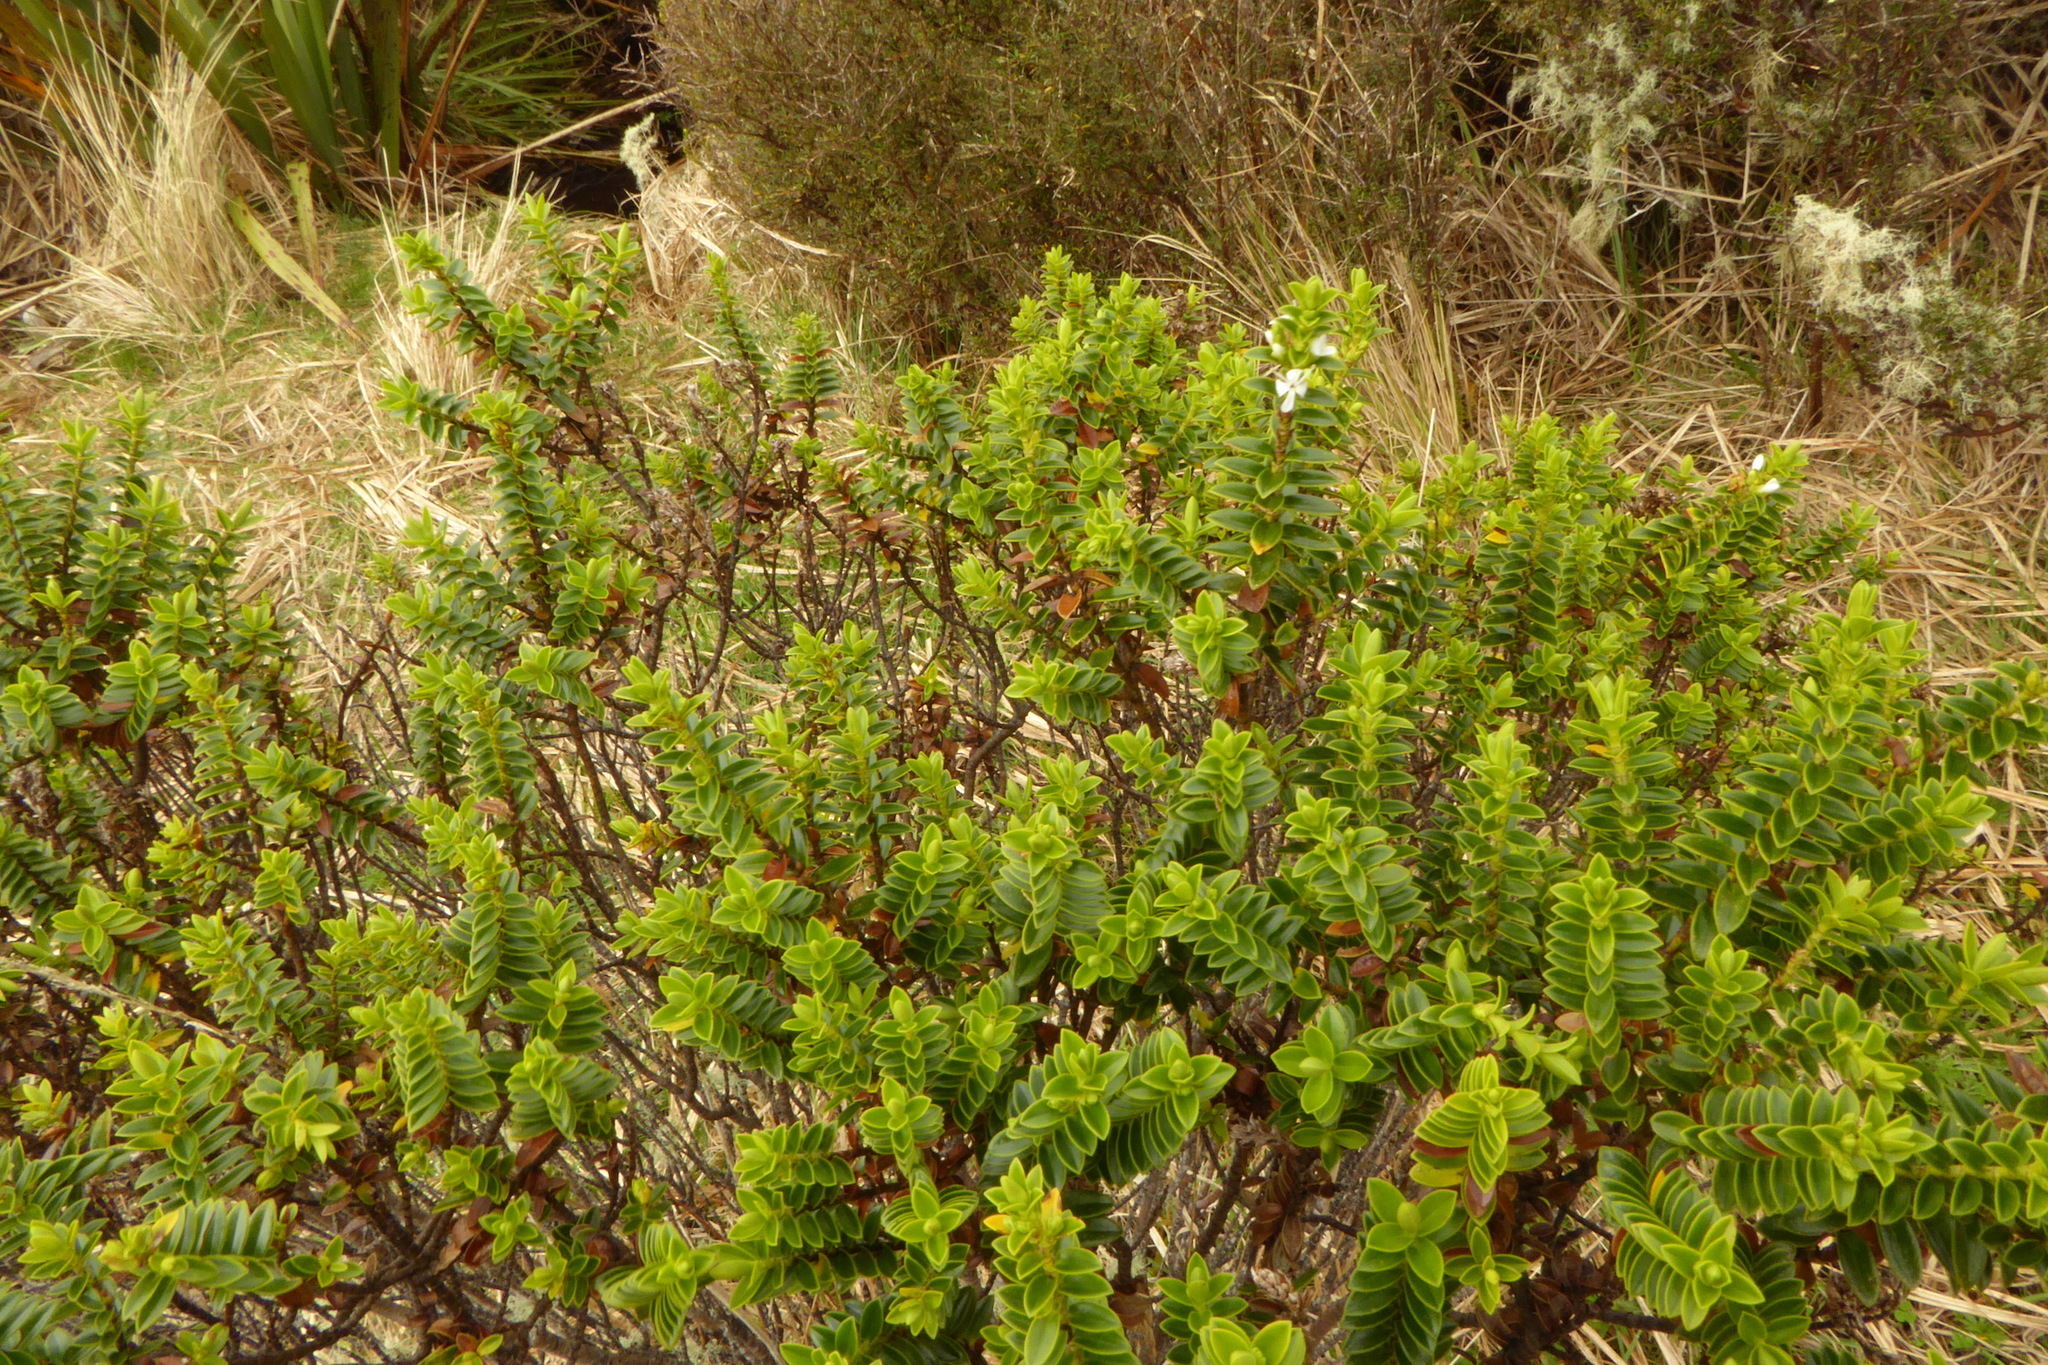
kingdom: Plantae
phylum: Tracheophyta
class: Magnoliopsida
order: Lamiales
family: Plantaginaceae
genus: Veronica
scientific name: Veronica odora
